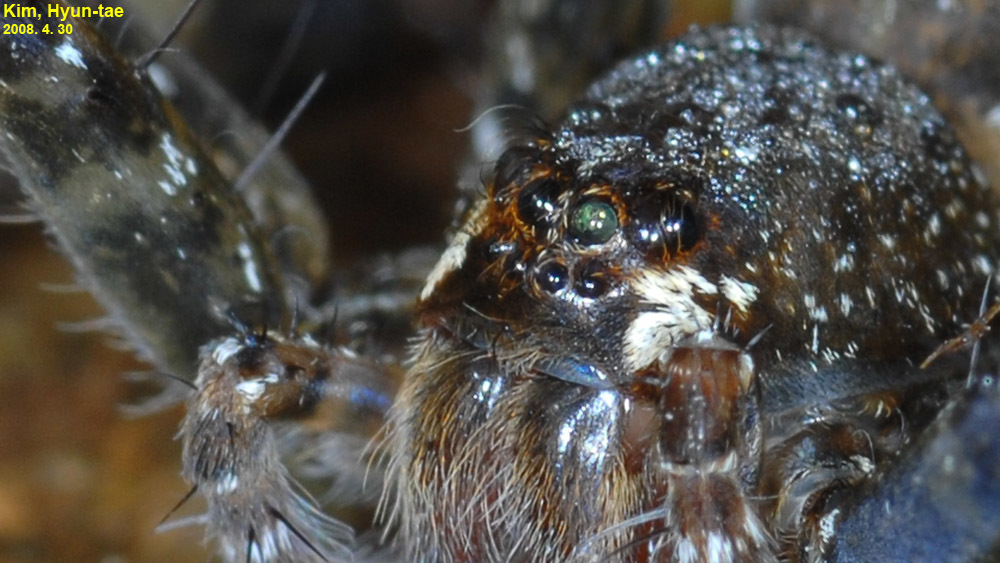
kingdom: Animalia
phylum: Arthropoda
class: Arachnida
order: Araneae
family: Pisauridae
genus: Dolomedes
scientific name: Dolomedes raptor
